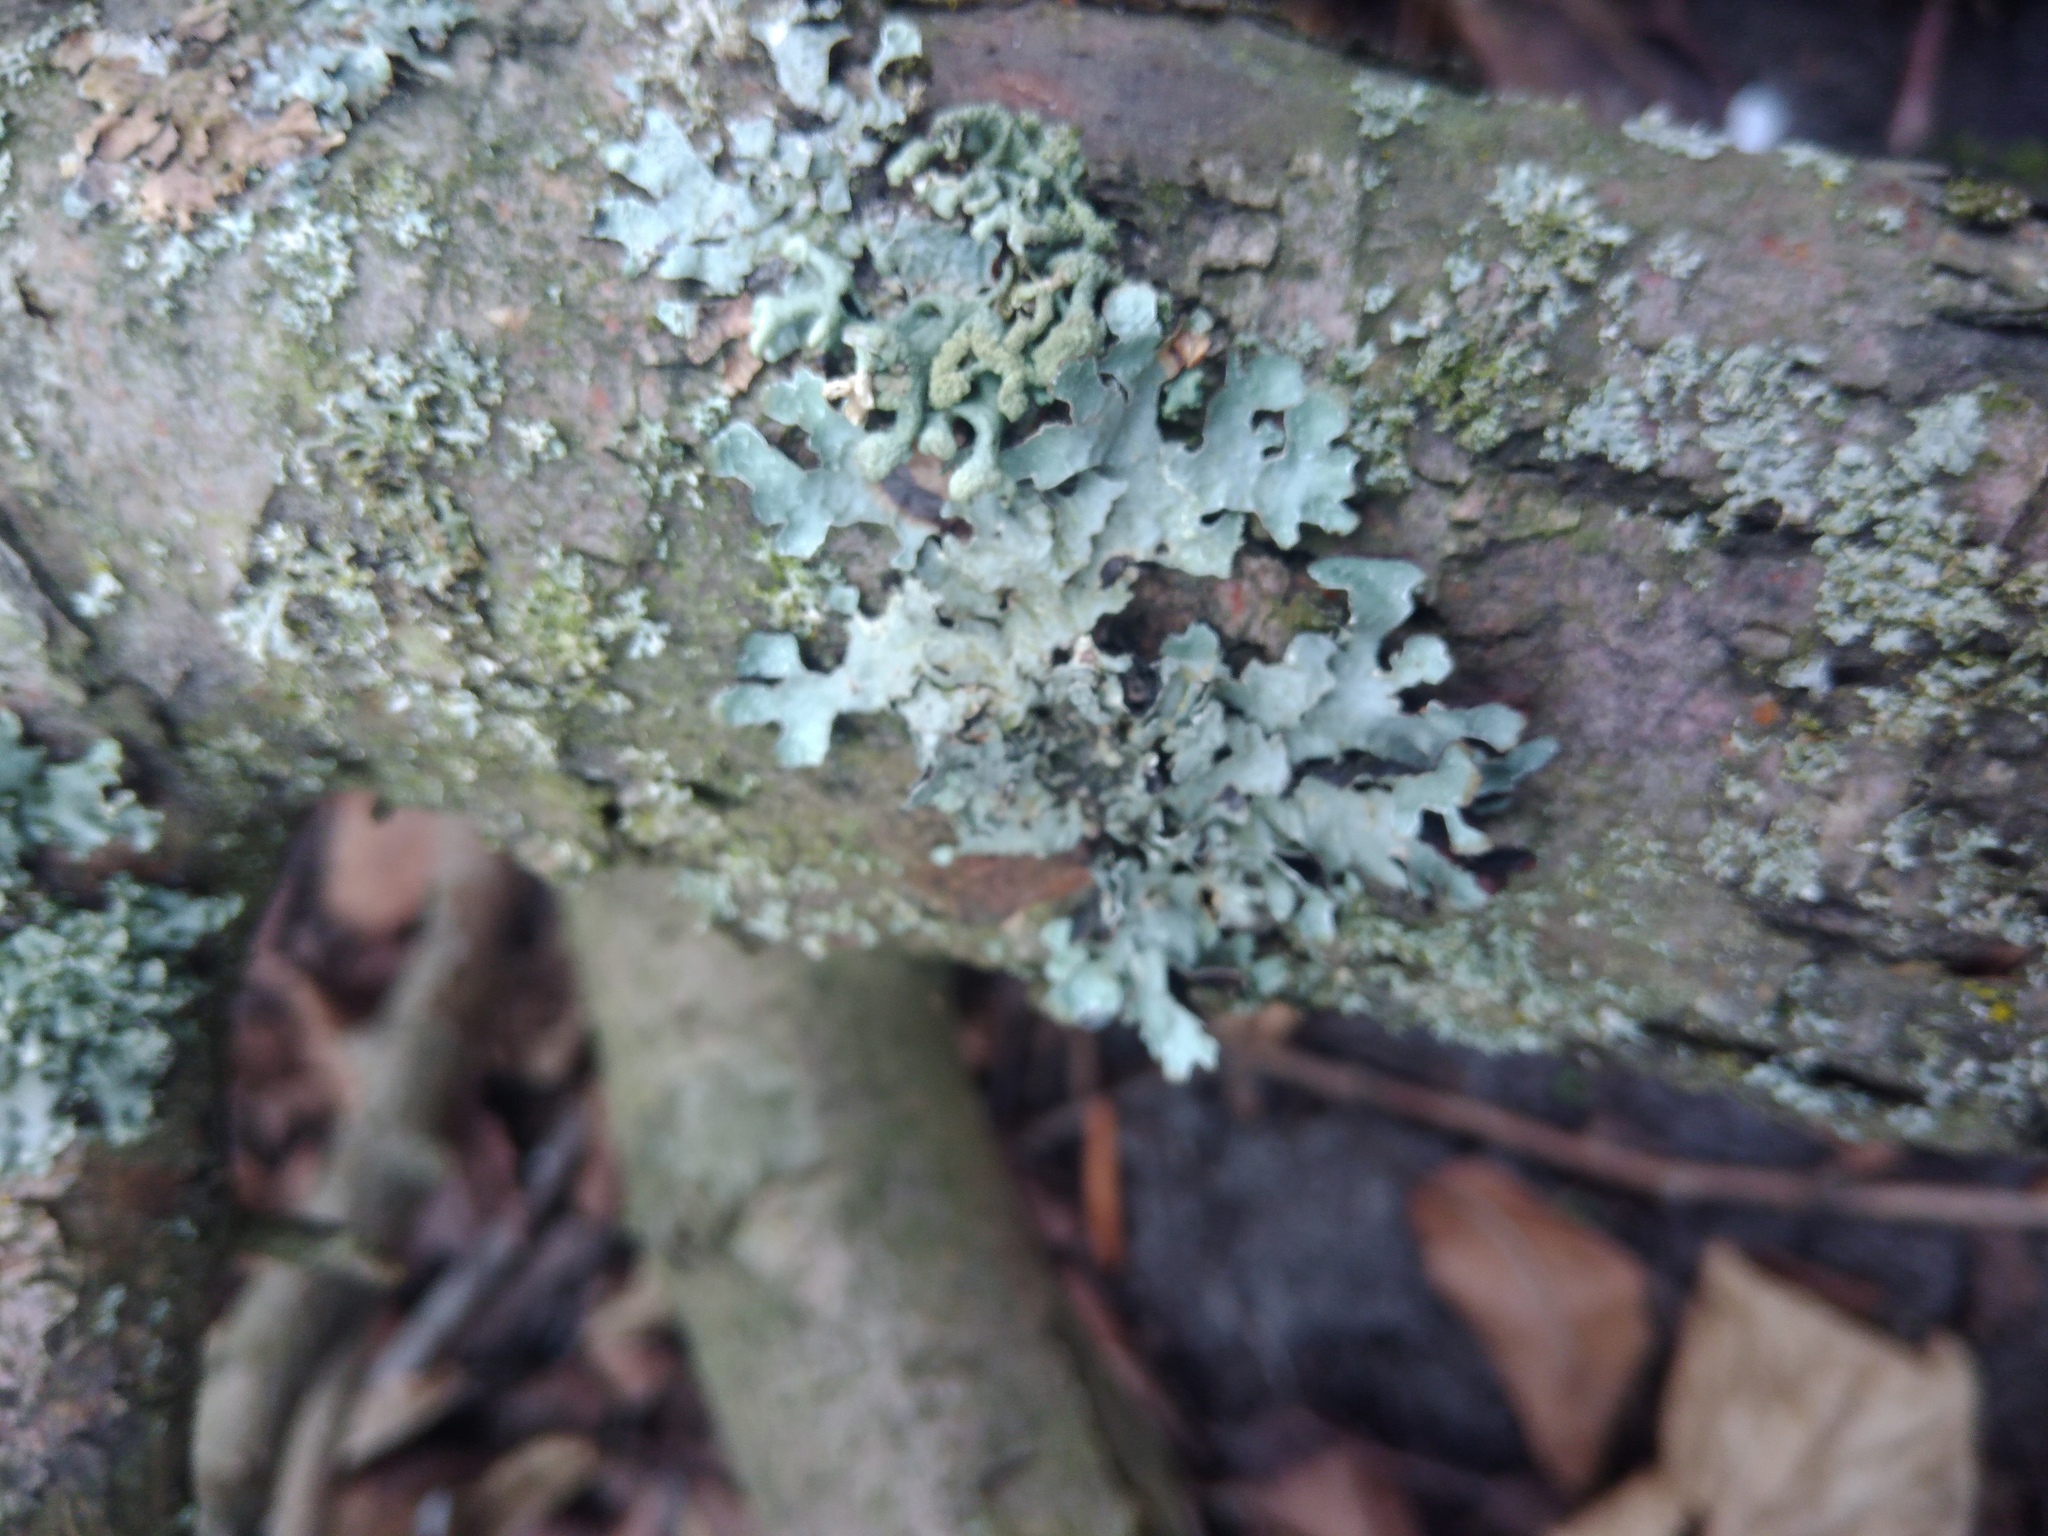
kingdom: Fungi
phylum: Ascomycota
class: Lecanoromycetes
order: Lecanorales
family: Parmeliaceae
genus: Parmelia
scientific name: Parmelia sulcata
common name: Netted shield lichen
